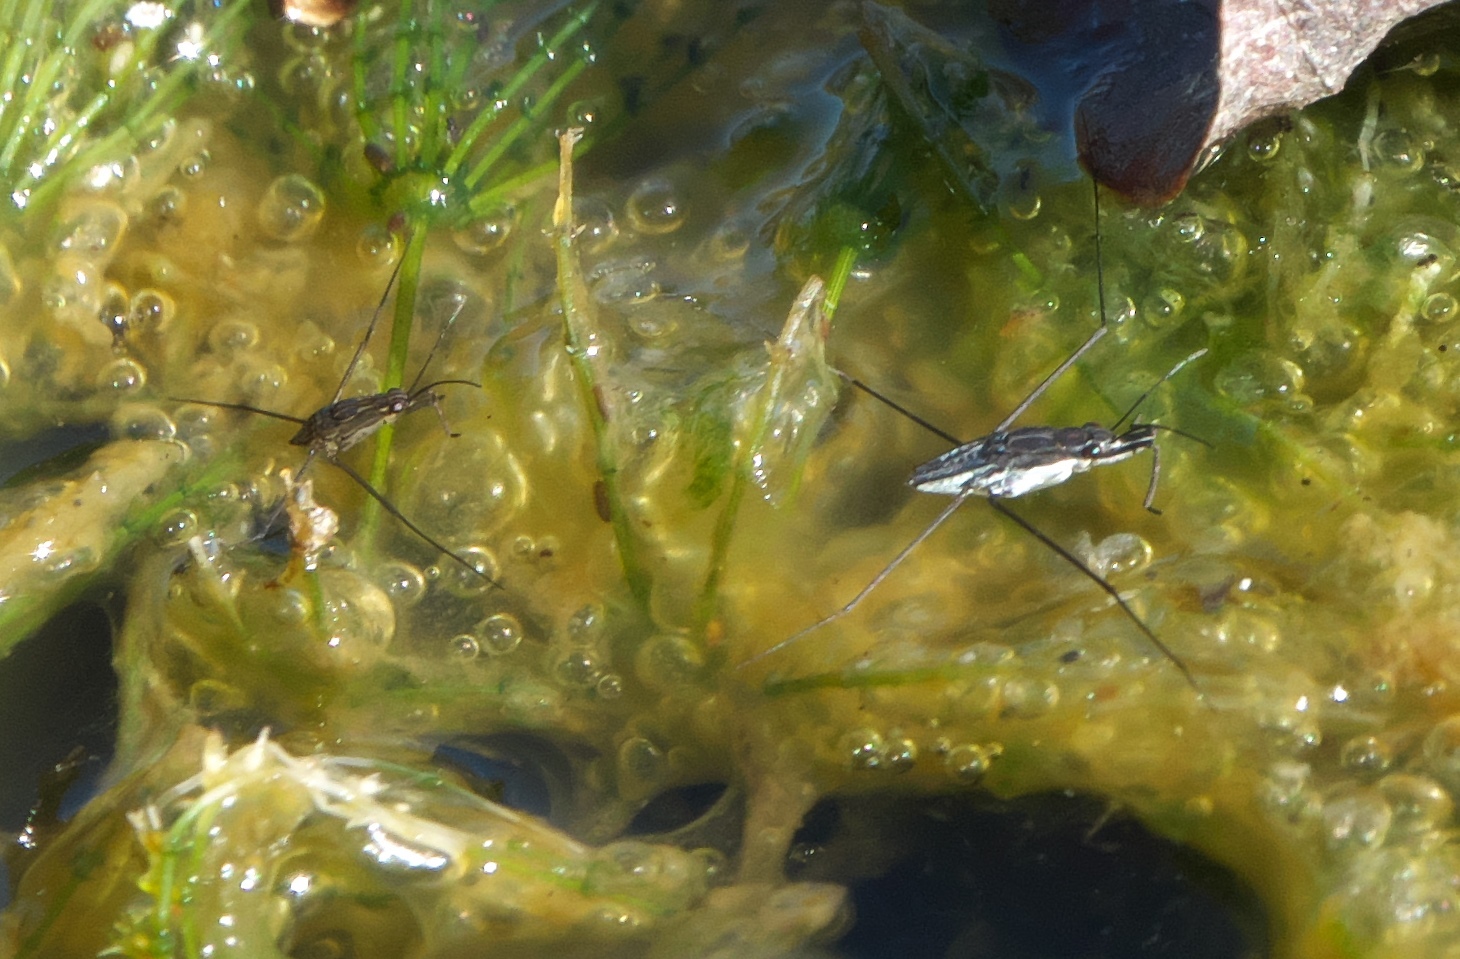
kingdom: Animalia
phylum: Arthropoda
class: Insecta
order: Hemiptera
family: Gerridae
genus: Neogerris
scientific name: Neogerris hesione
